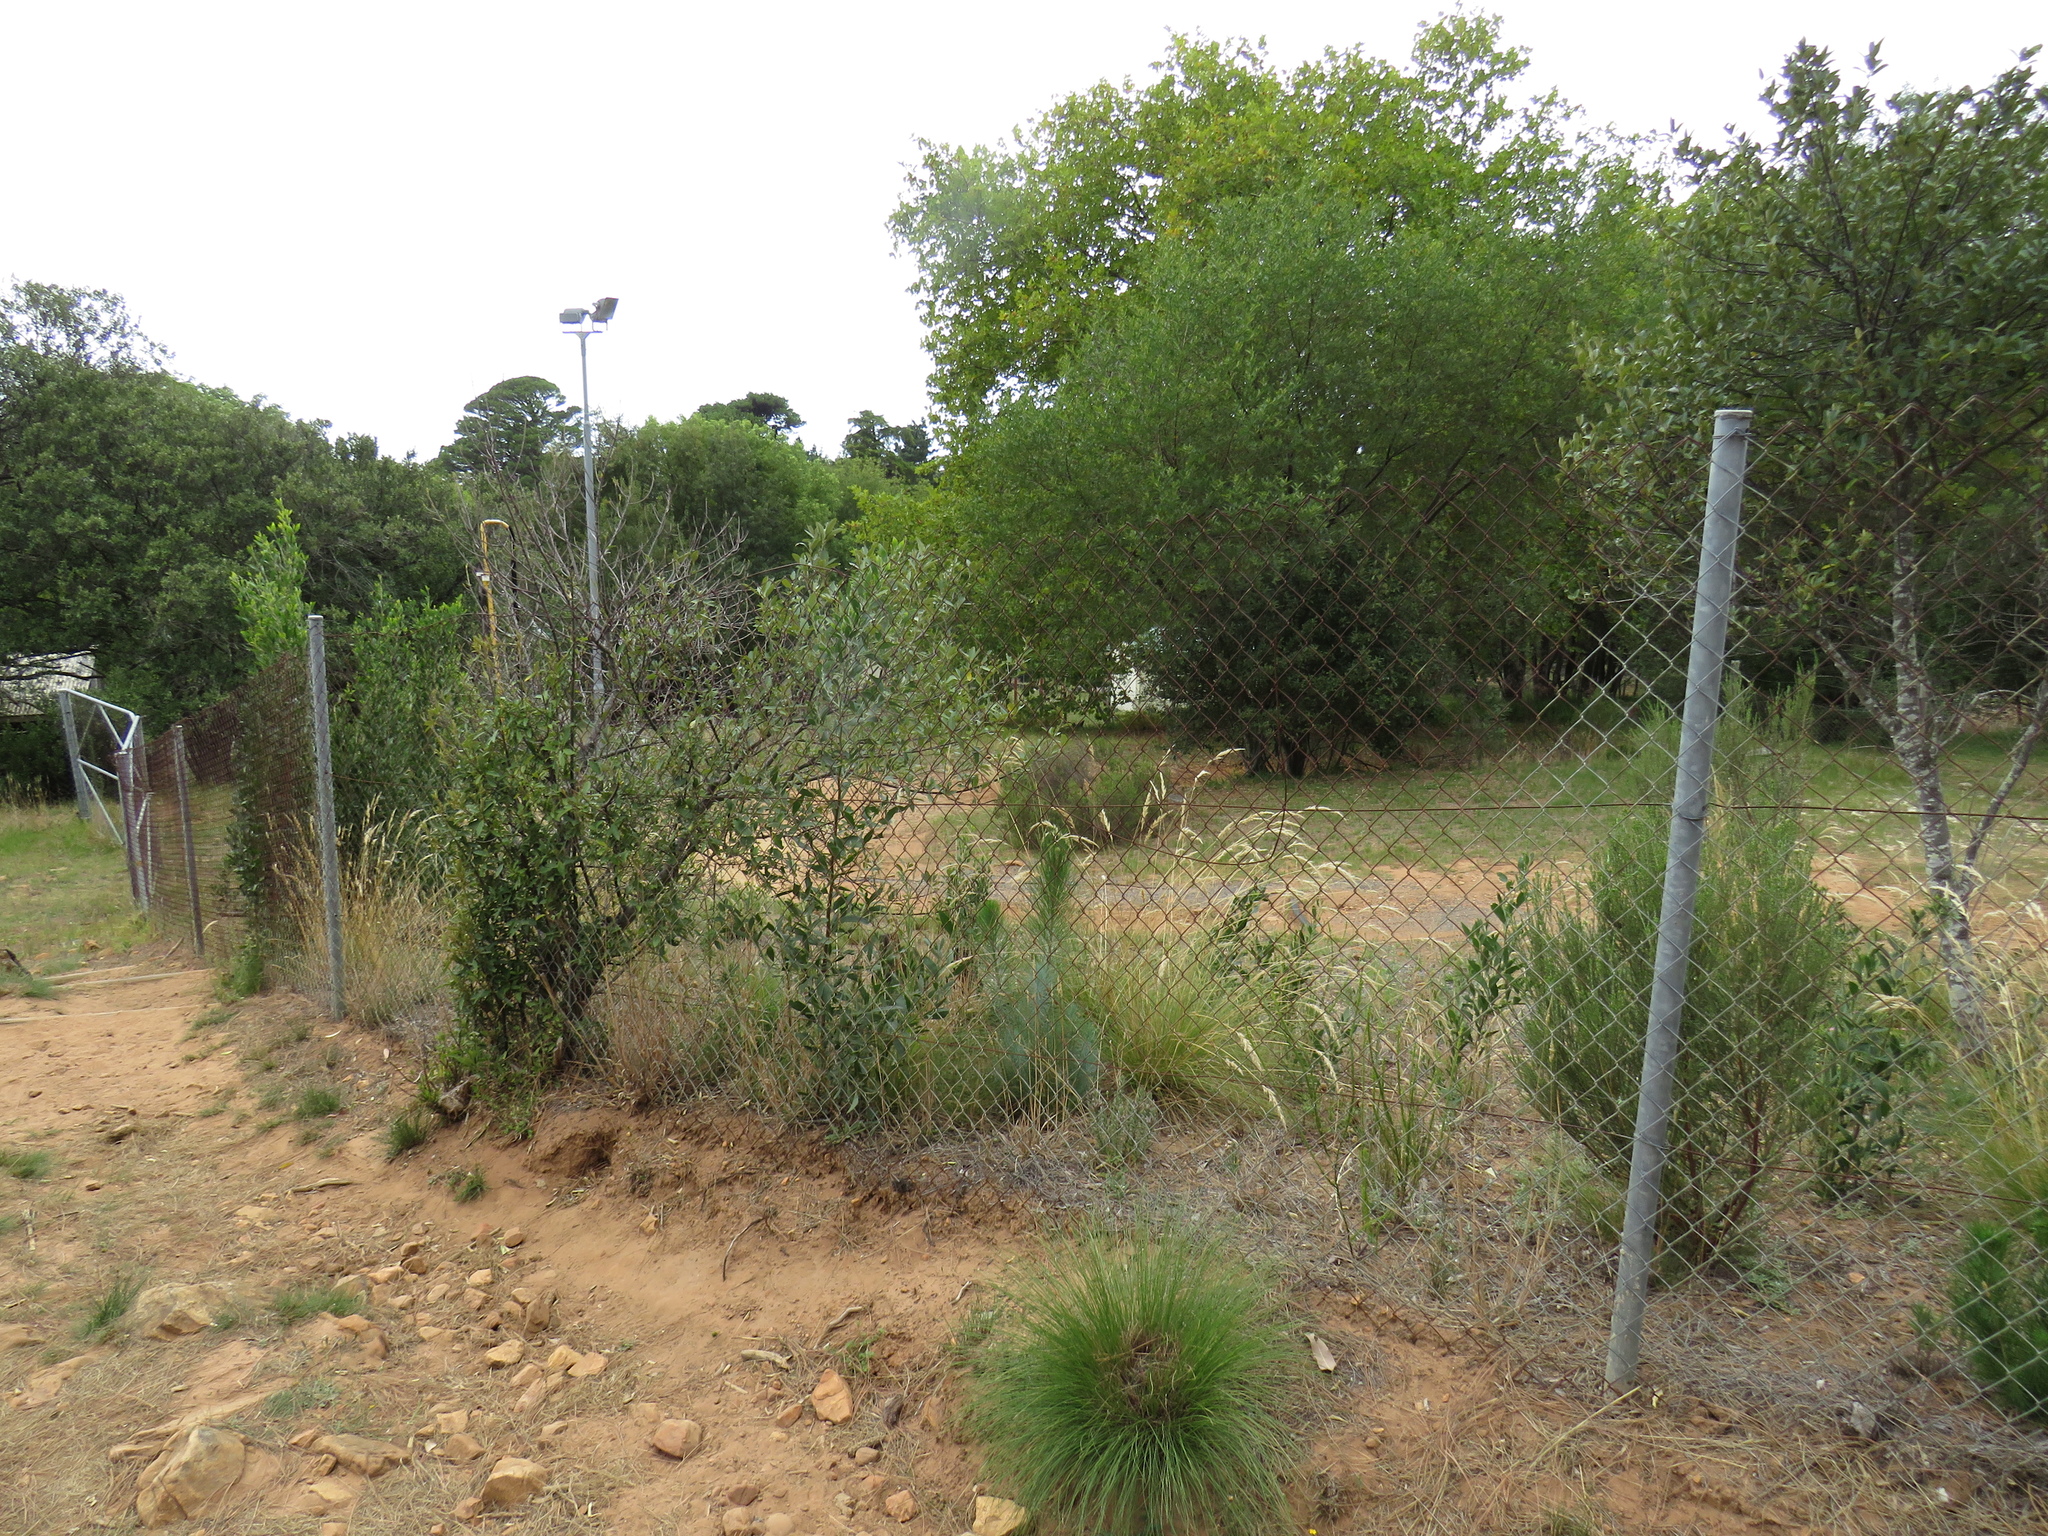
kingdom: Plantae
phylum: Tracheophyta
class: Magnoliopsida
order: Fabales
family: Fabaceae
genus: Acacia
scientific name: Acacia melanoxylon
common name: Blackwood
